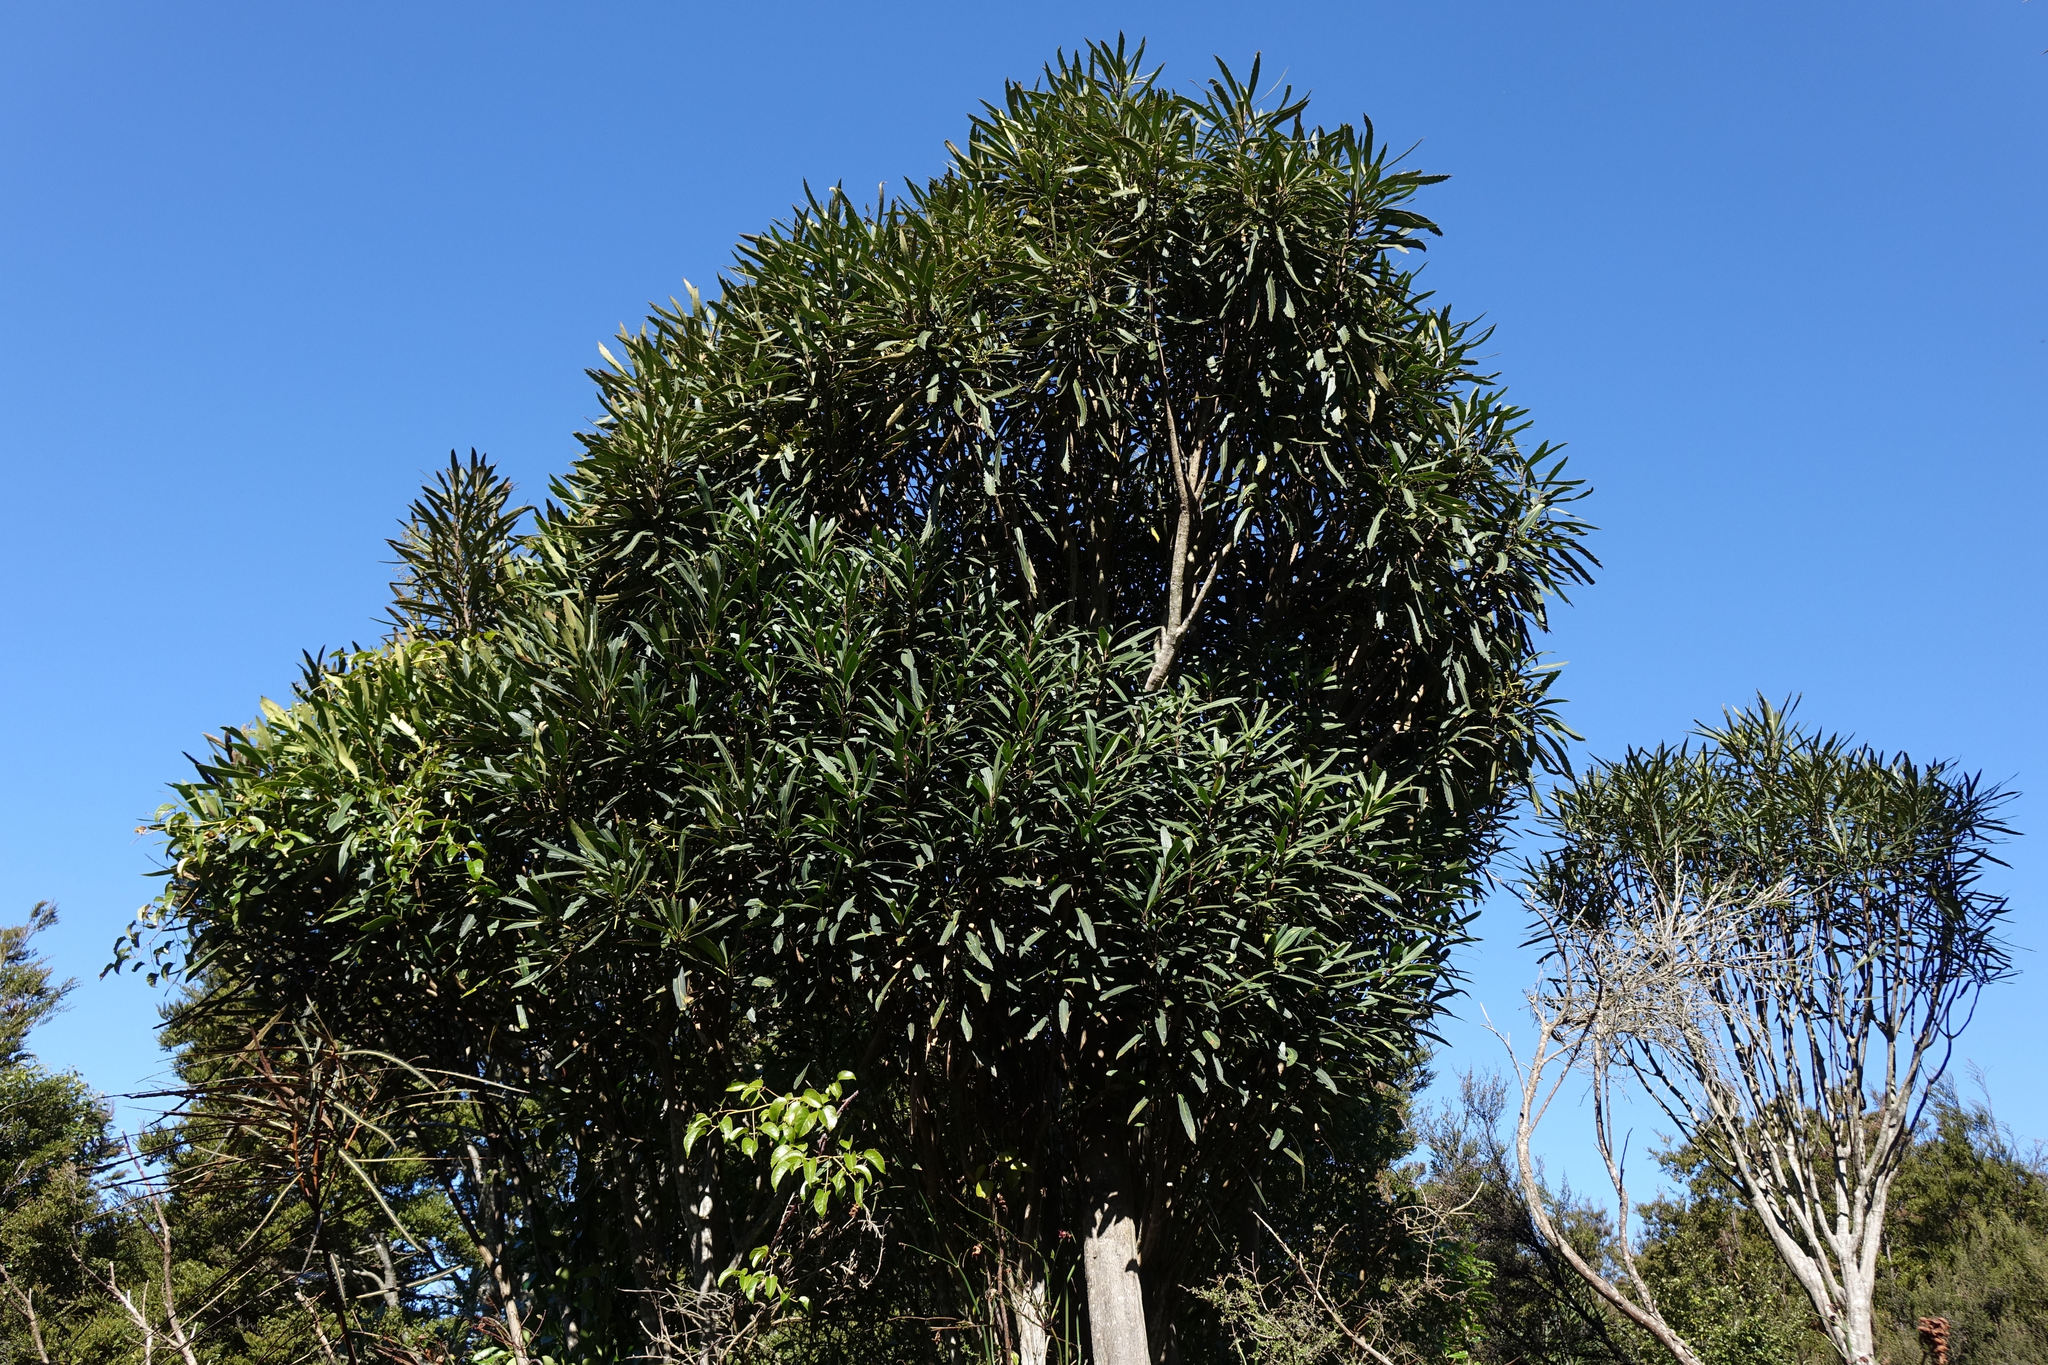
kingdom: Plantae
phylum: Tracheophyta
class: Magnoliopsida
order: Apiales
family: Araliaceae
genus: Pseudopanax
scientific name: Pseudopanax crassifolius
